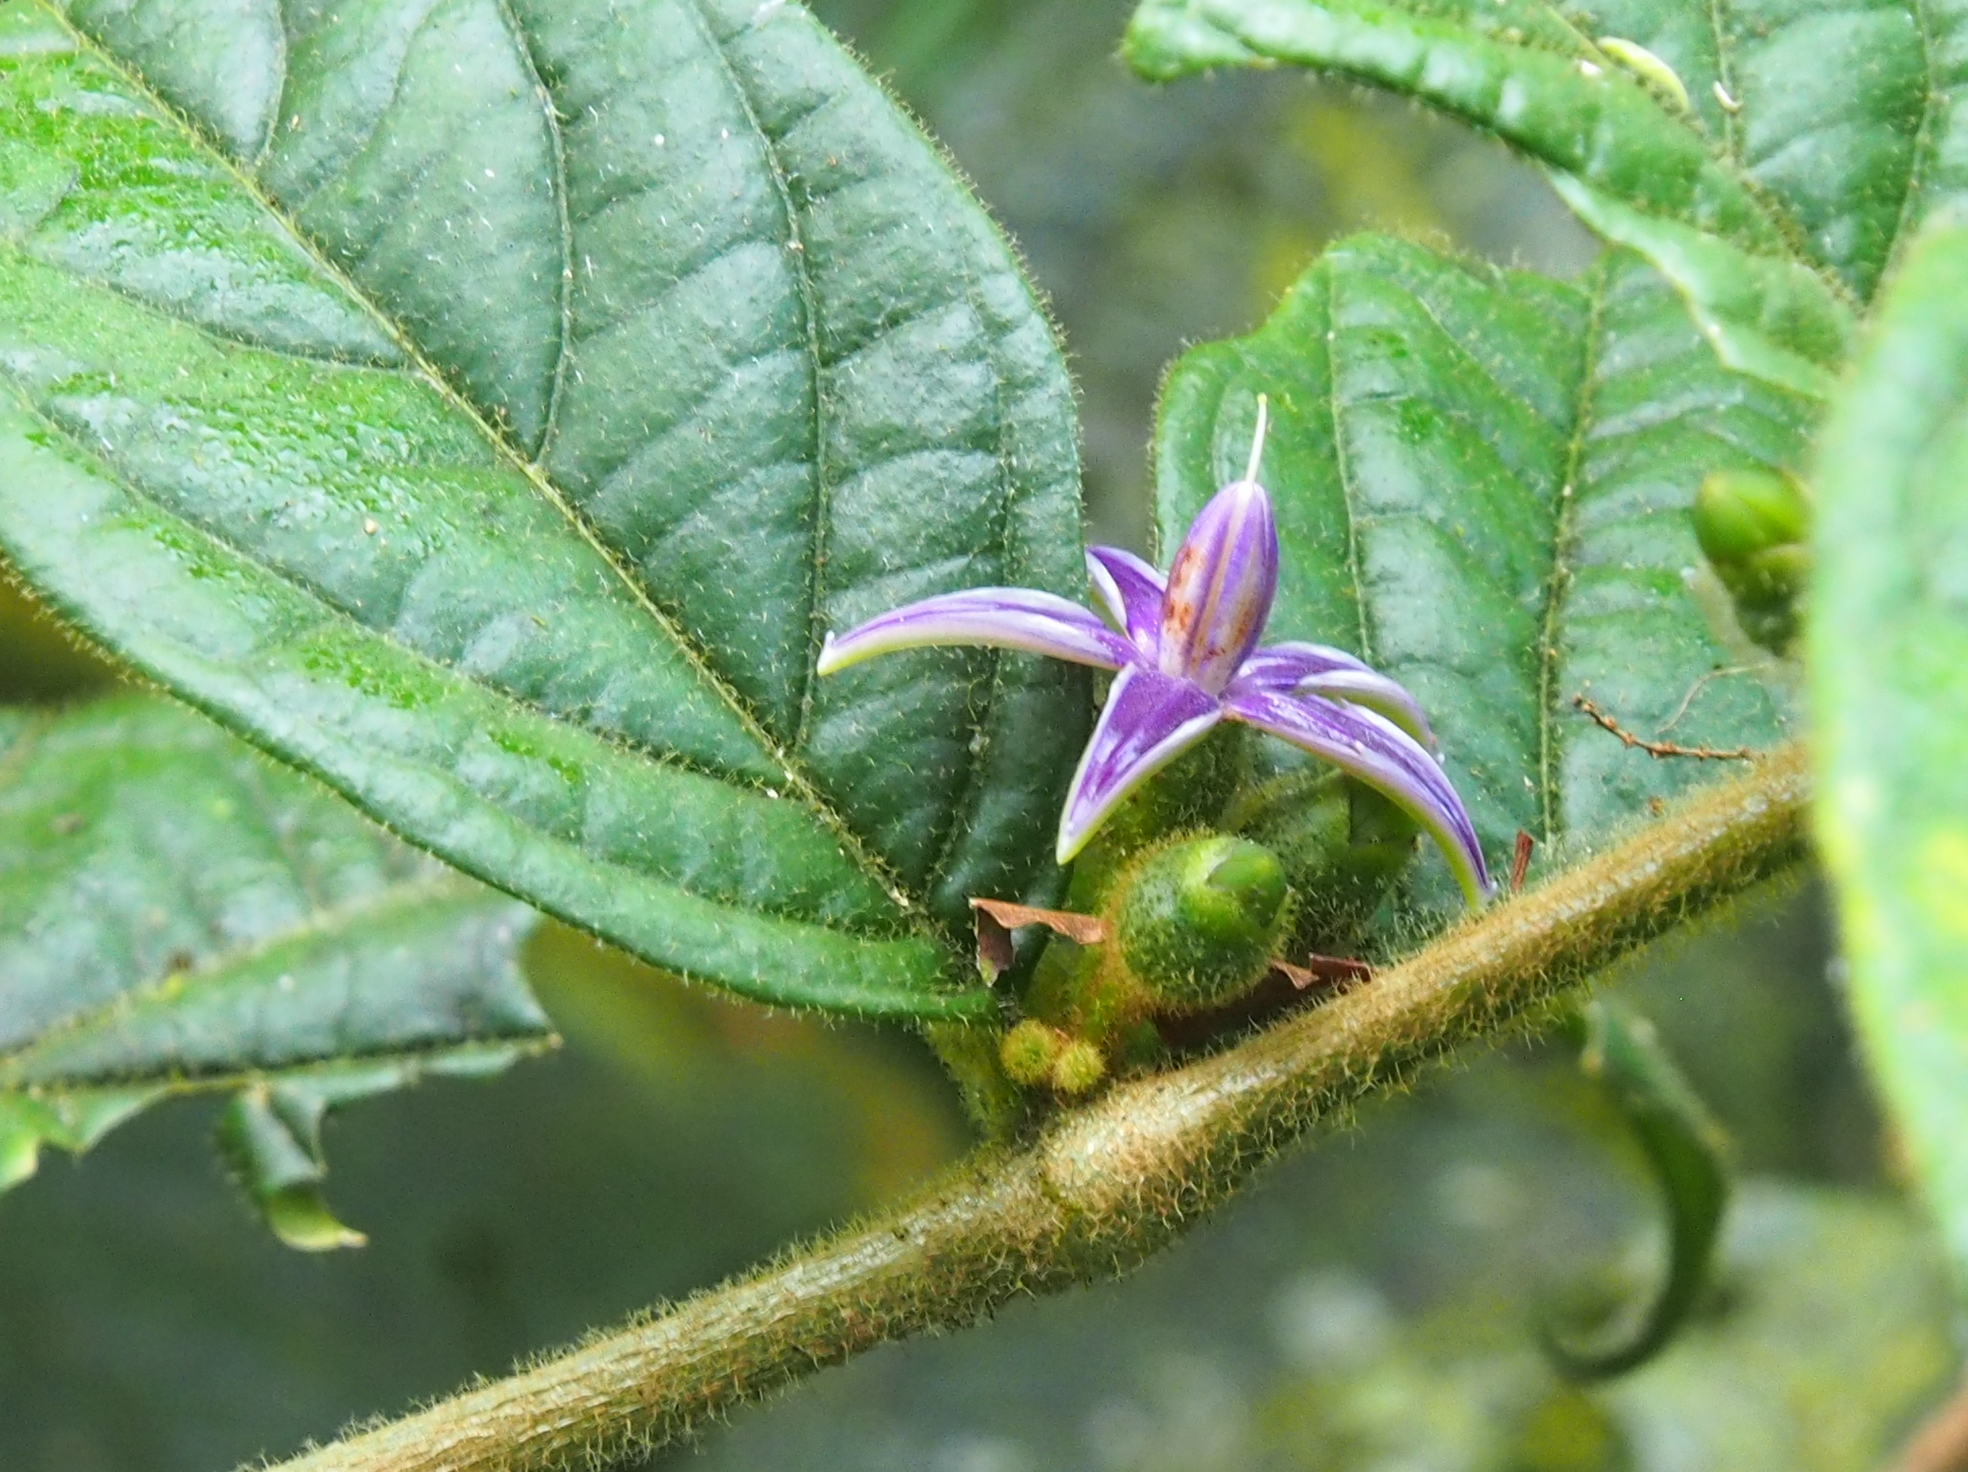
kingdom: Plantae
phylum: Tracheophyta
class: Magnoliopsida
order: Solanales
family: Solanaceae
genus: Lycianthes
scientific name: Lycianthes sanctaeclarae
